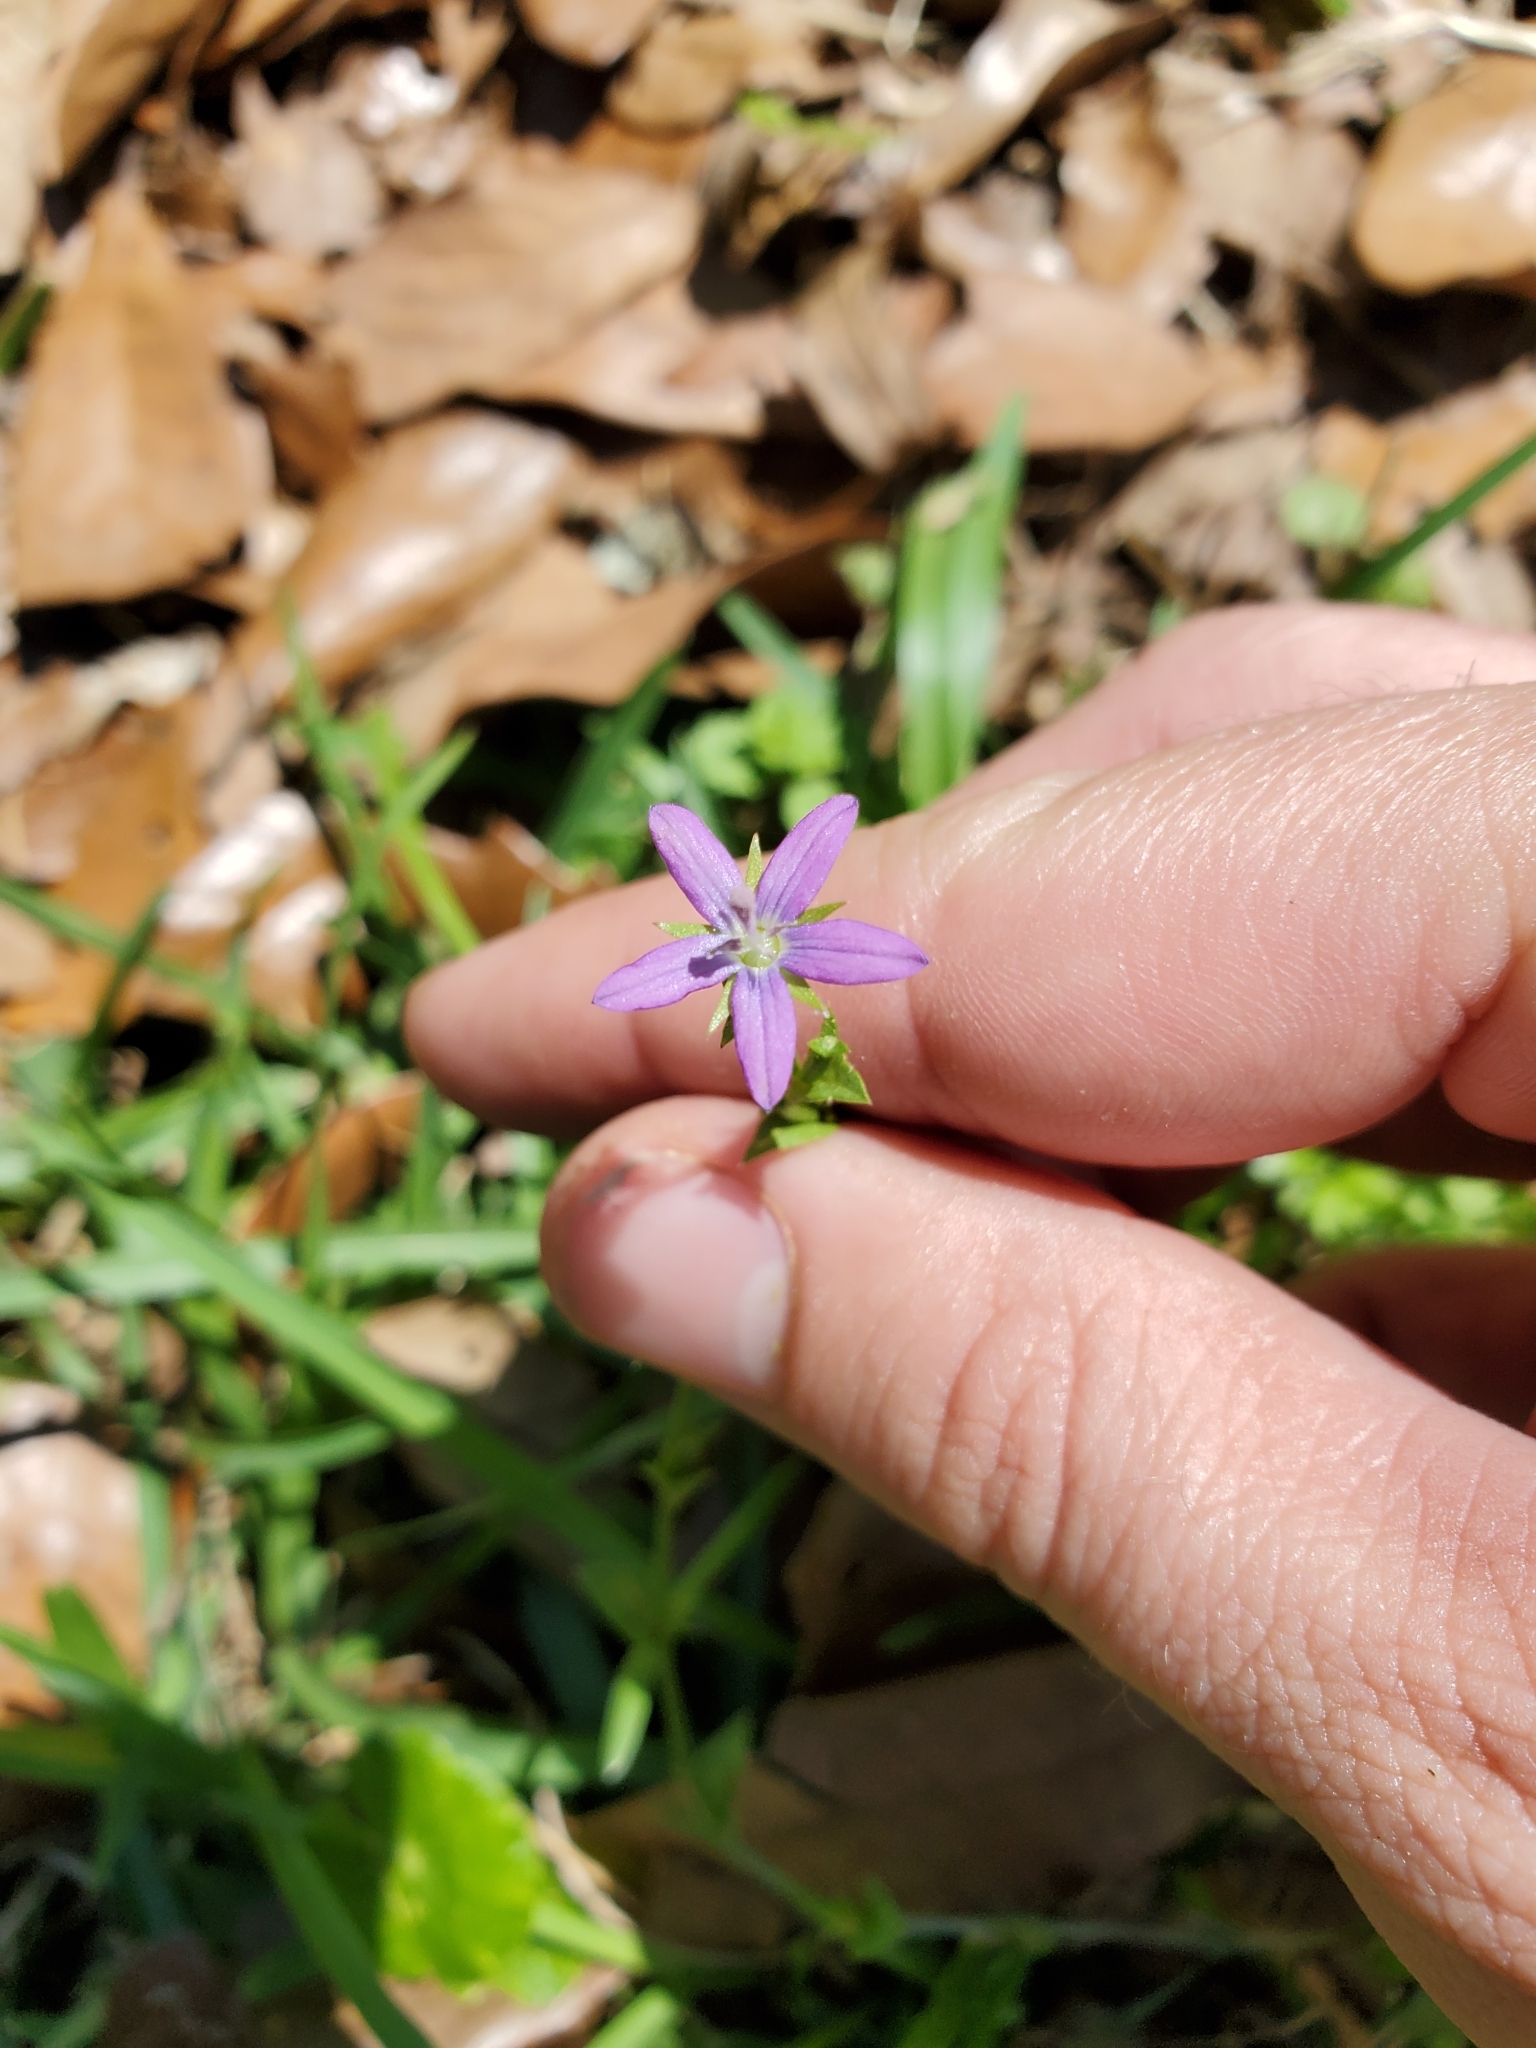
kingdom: Plantae
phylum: Tracheophyta
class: Magnoliopsida
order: Asterales
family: Campanulaceae
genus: Triodanis
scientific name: Triodanis biflora
